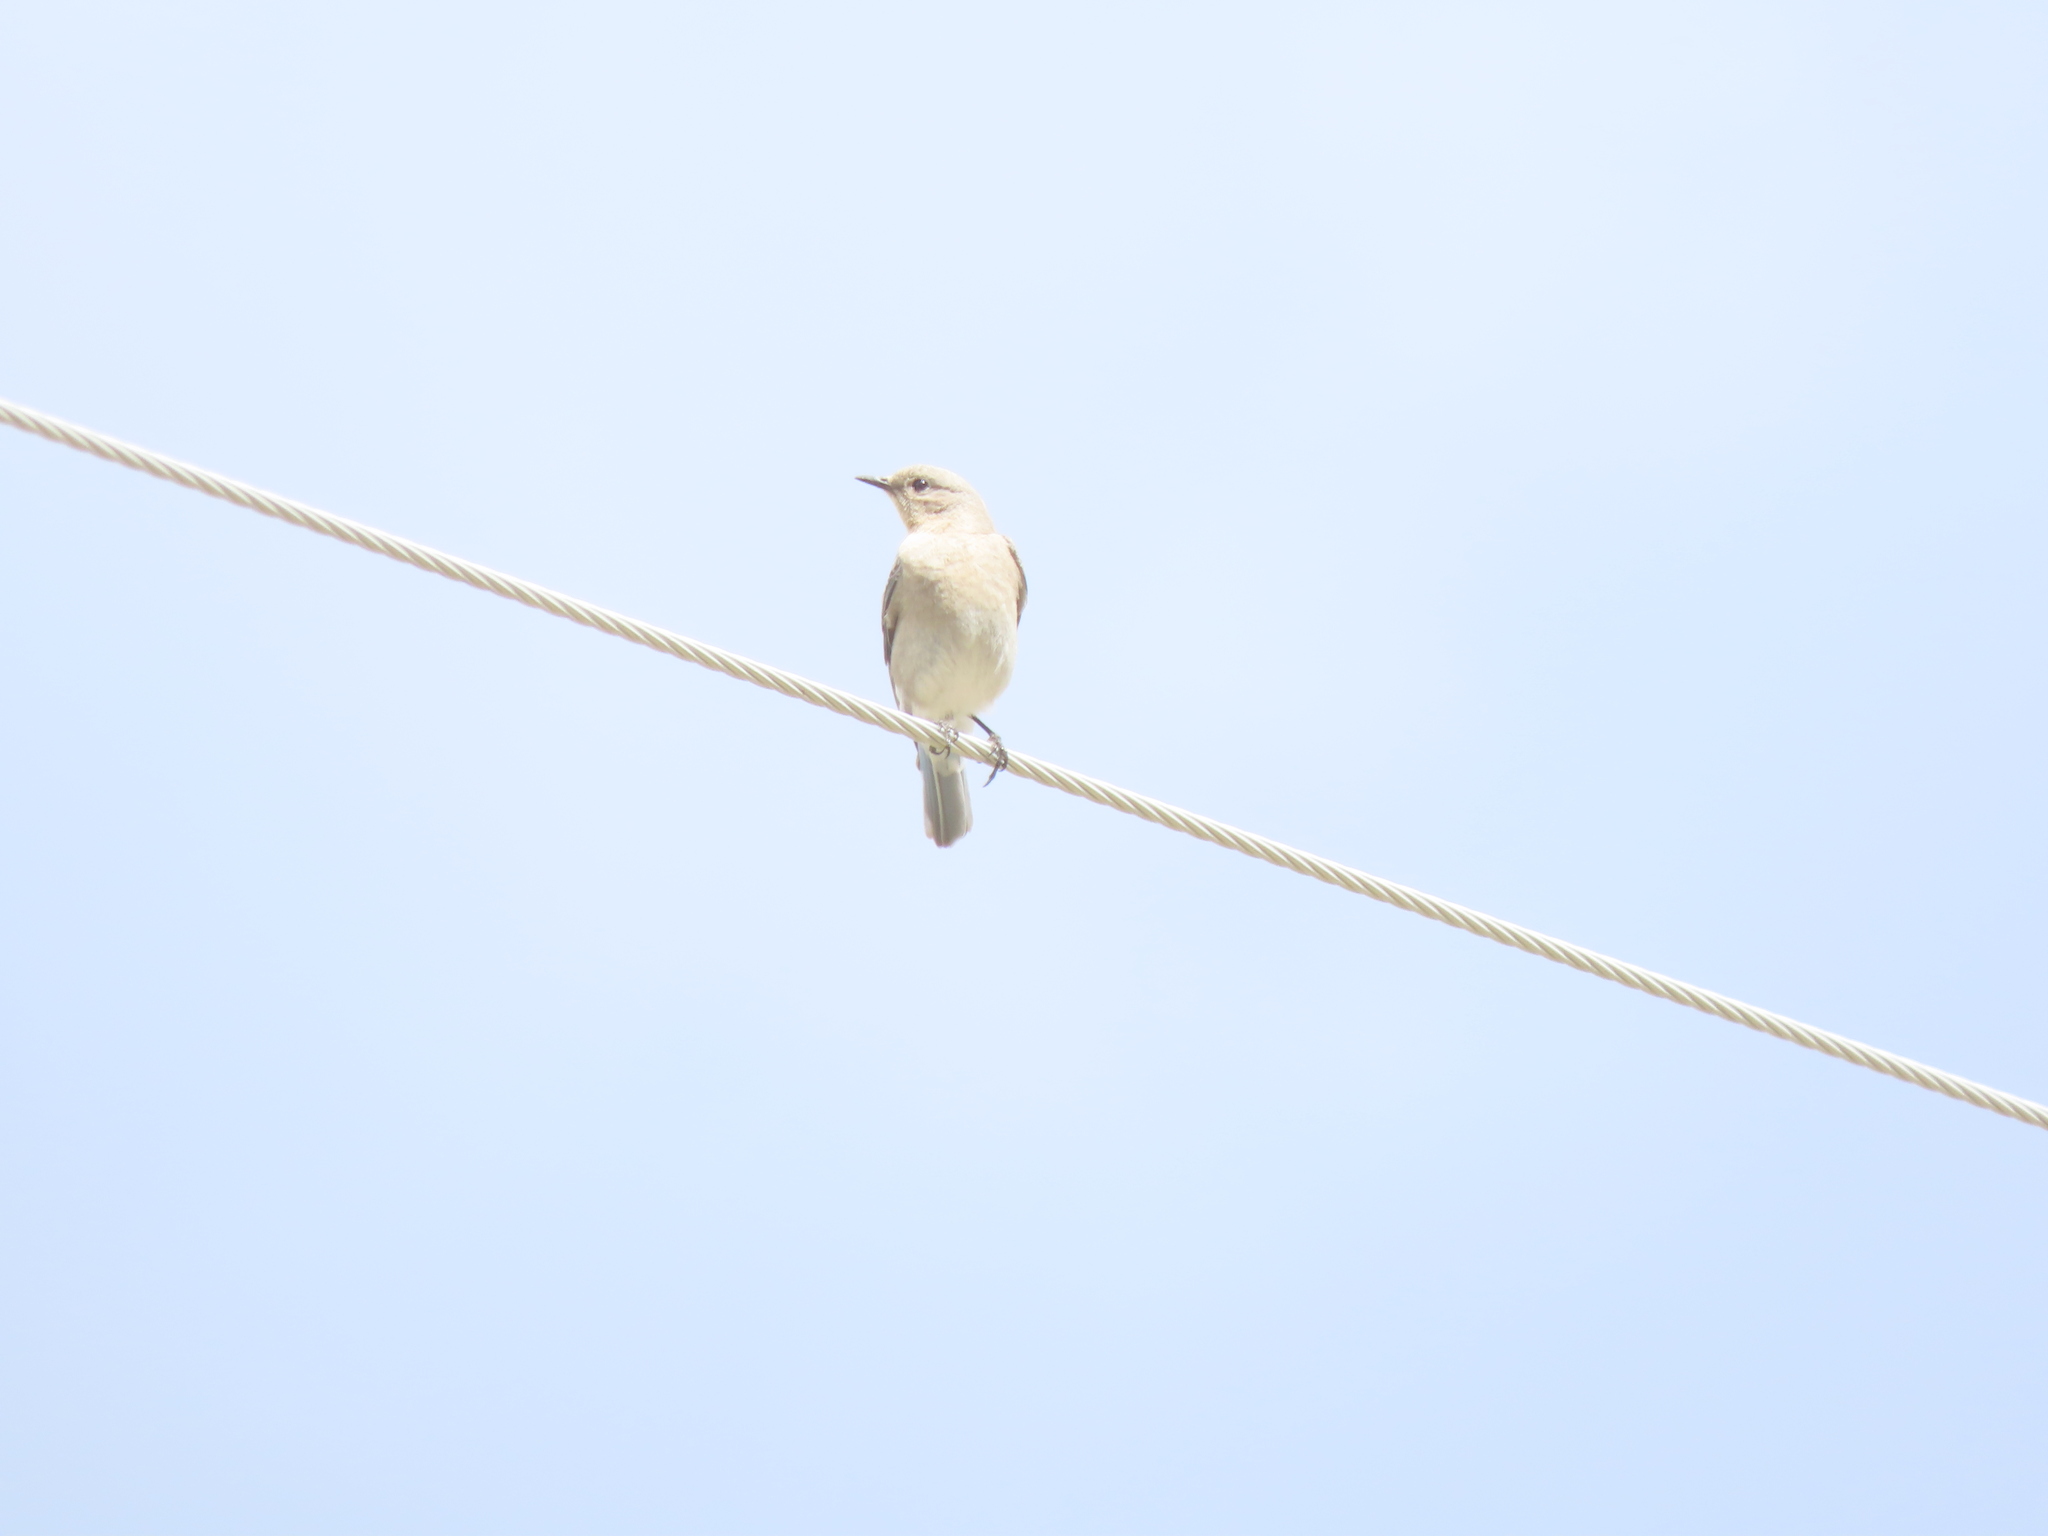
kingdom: Animalia
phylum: Chordata
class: Aves
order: Passeriformes
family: Turdidae
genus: Sialia
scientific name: Sialia currucoides
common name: Mountain bluebird
